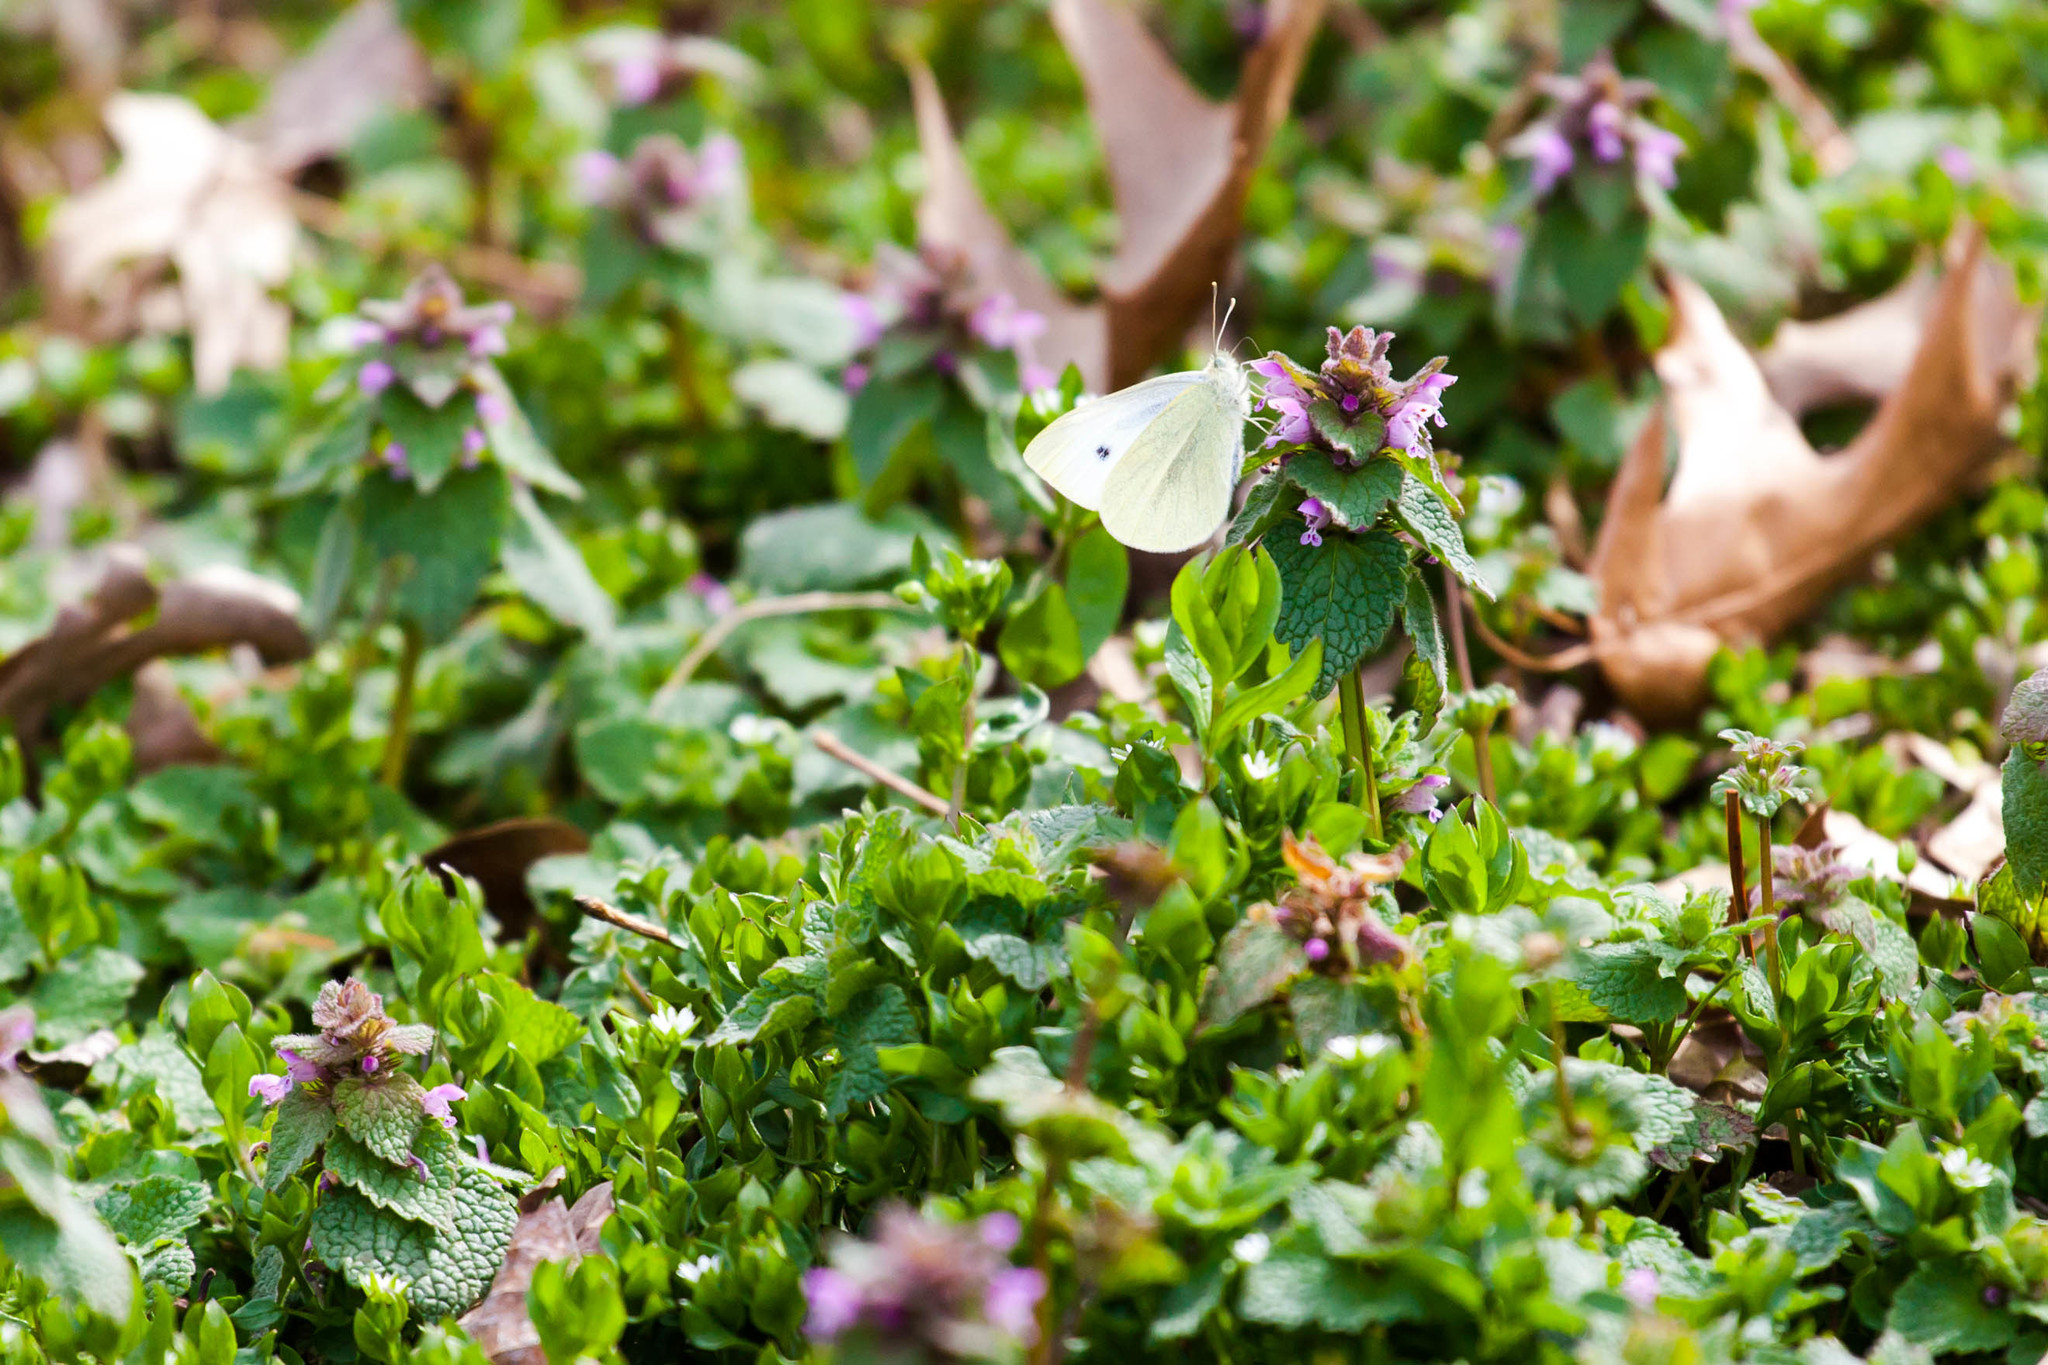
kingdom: Animalia
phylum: Arthropoda
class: Insecta
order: Lepidoptera
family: Pieridae
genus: Pieris
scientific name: Pieris rapae
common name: Small white
